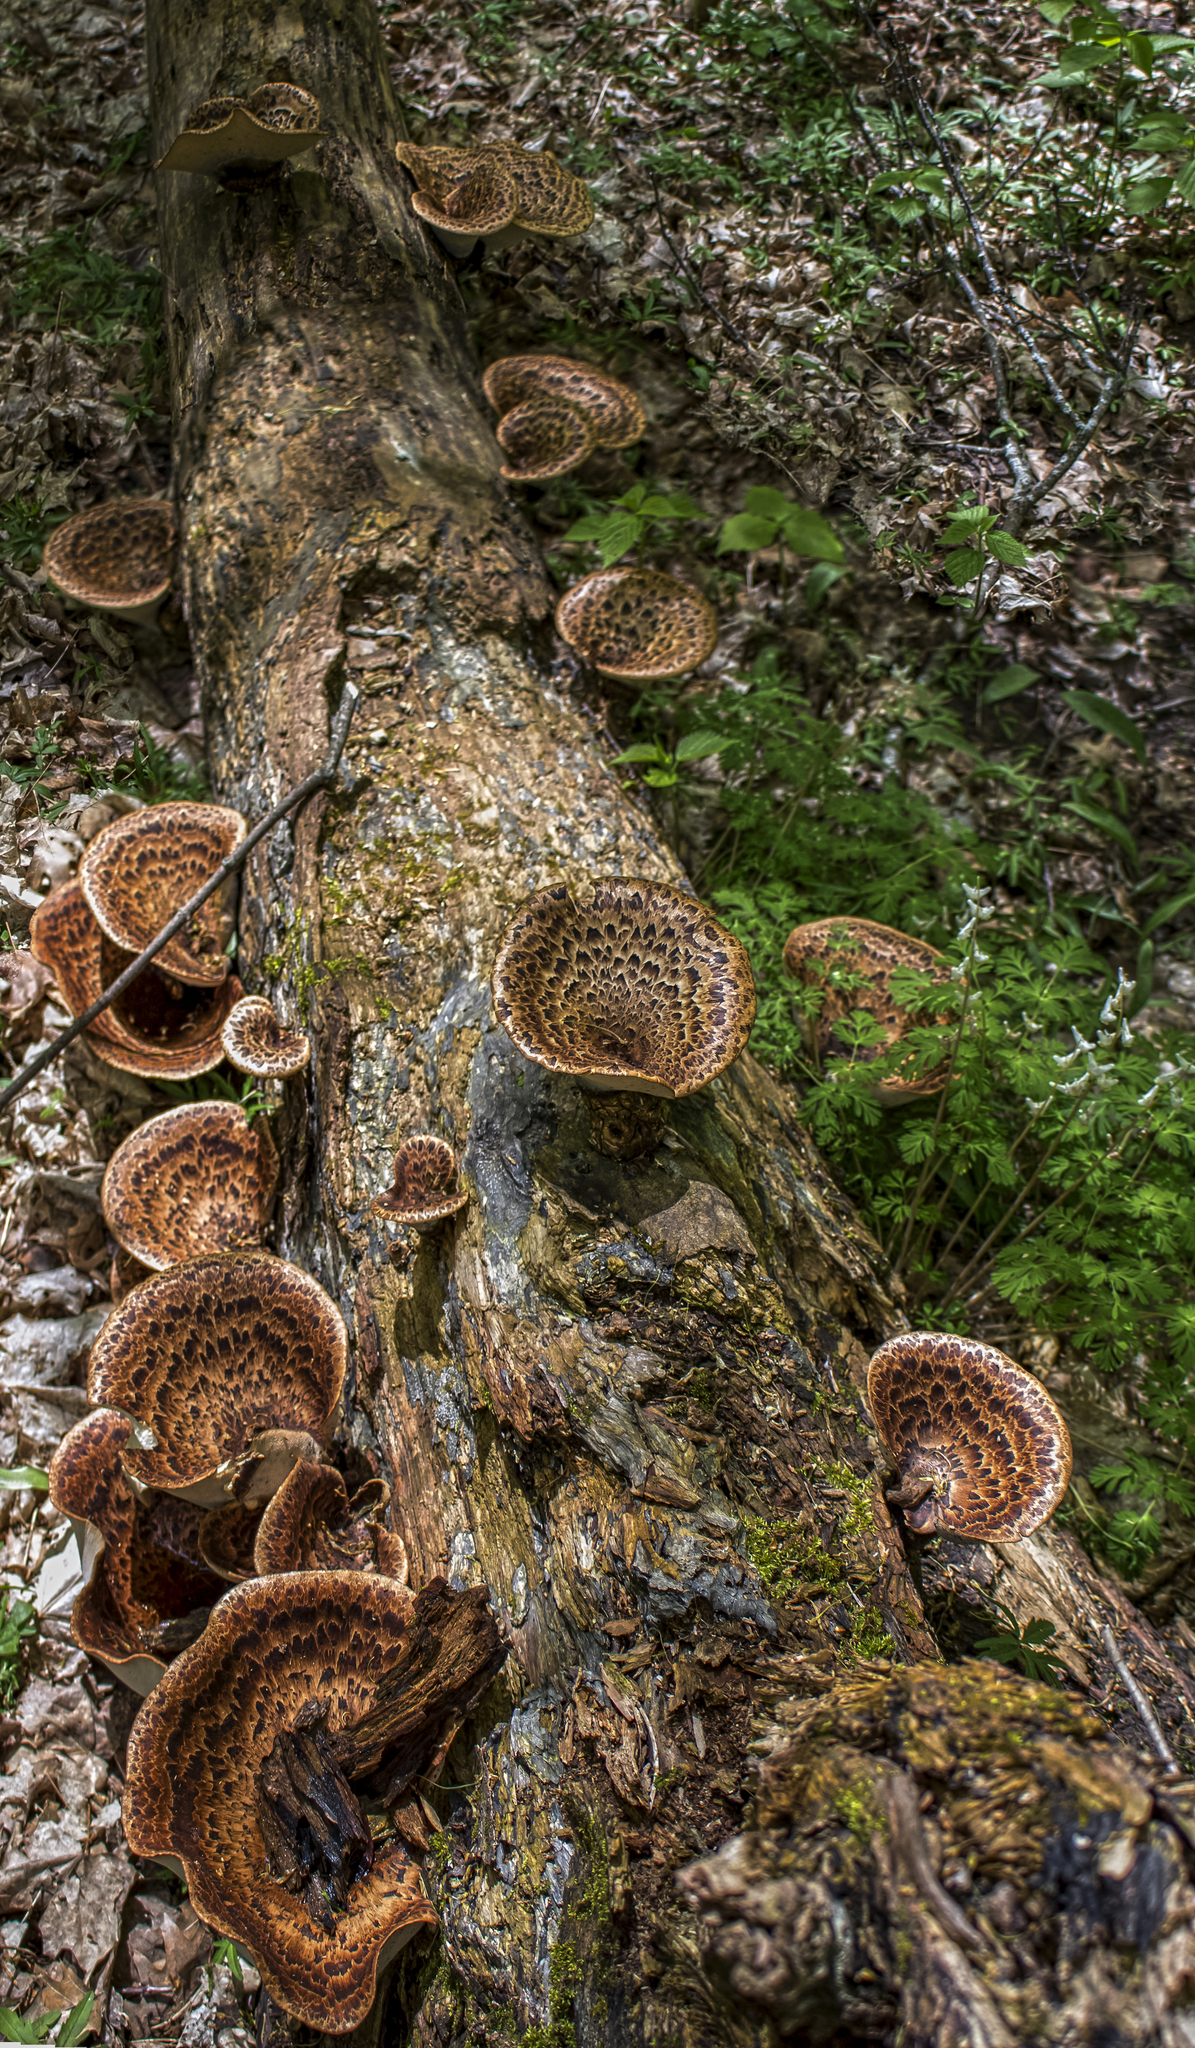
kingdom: Fungi
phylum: Basidiomycota
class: Agaricomycetes
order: Polyporales
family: Polyporaceae
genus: Cerioporus
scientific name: Cerioporus squamosus
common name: Dryad's saddle
